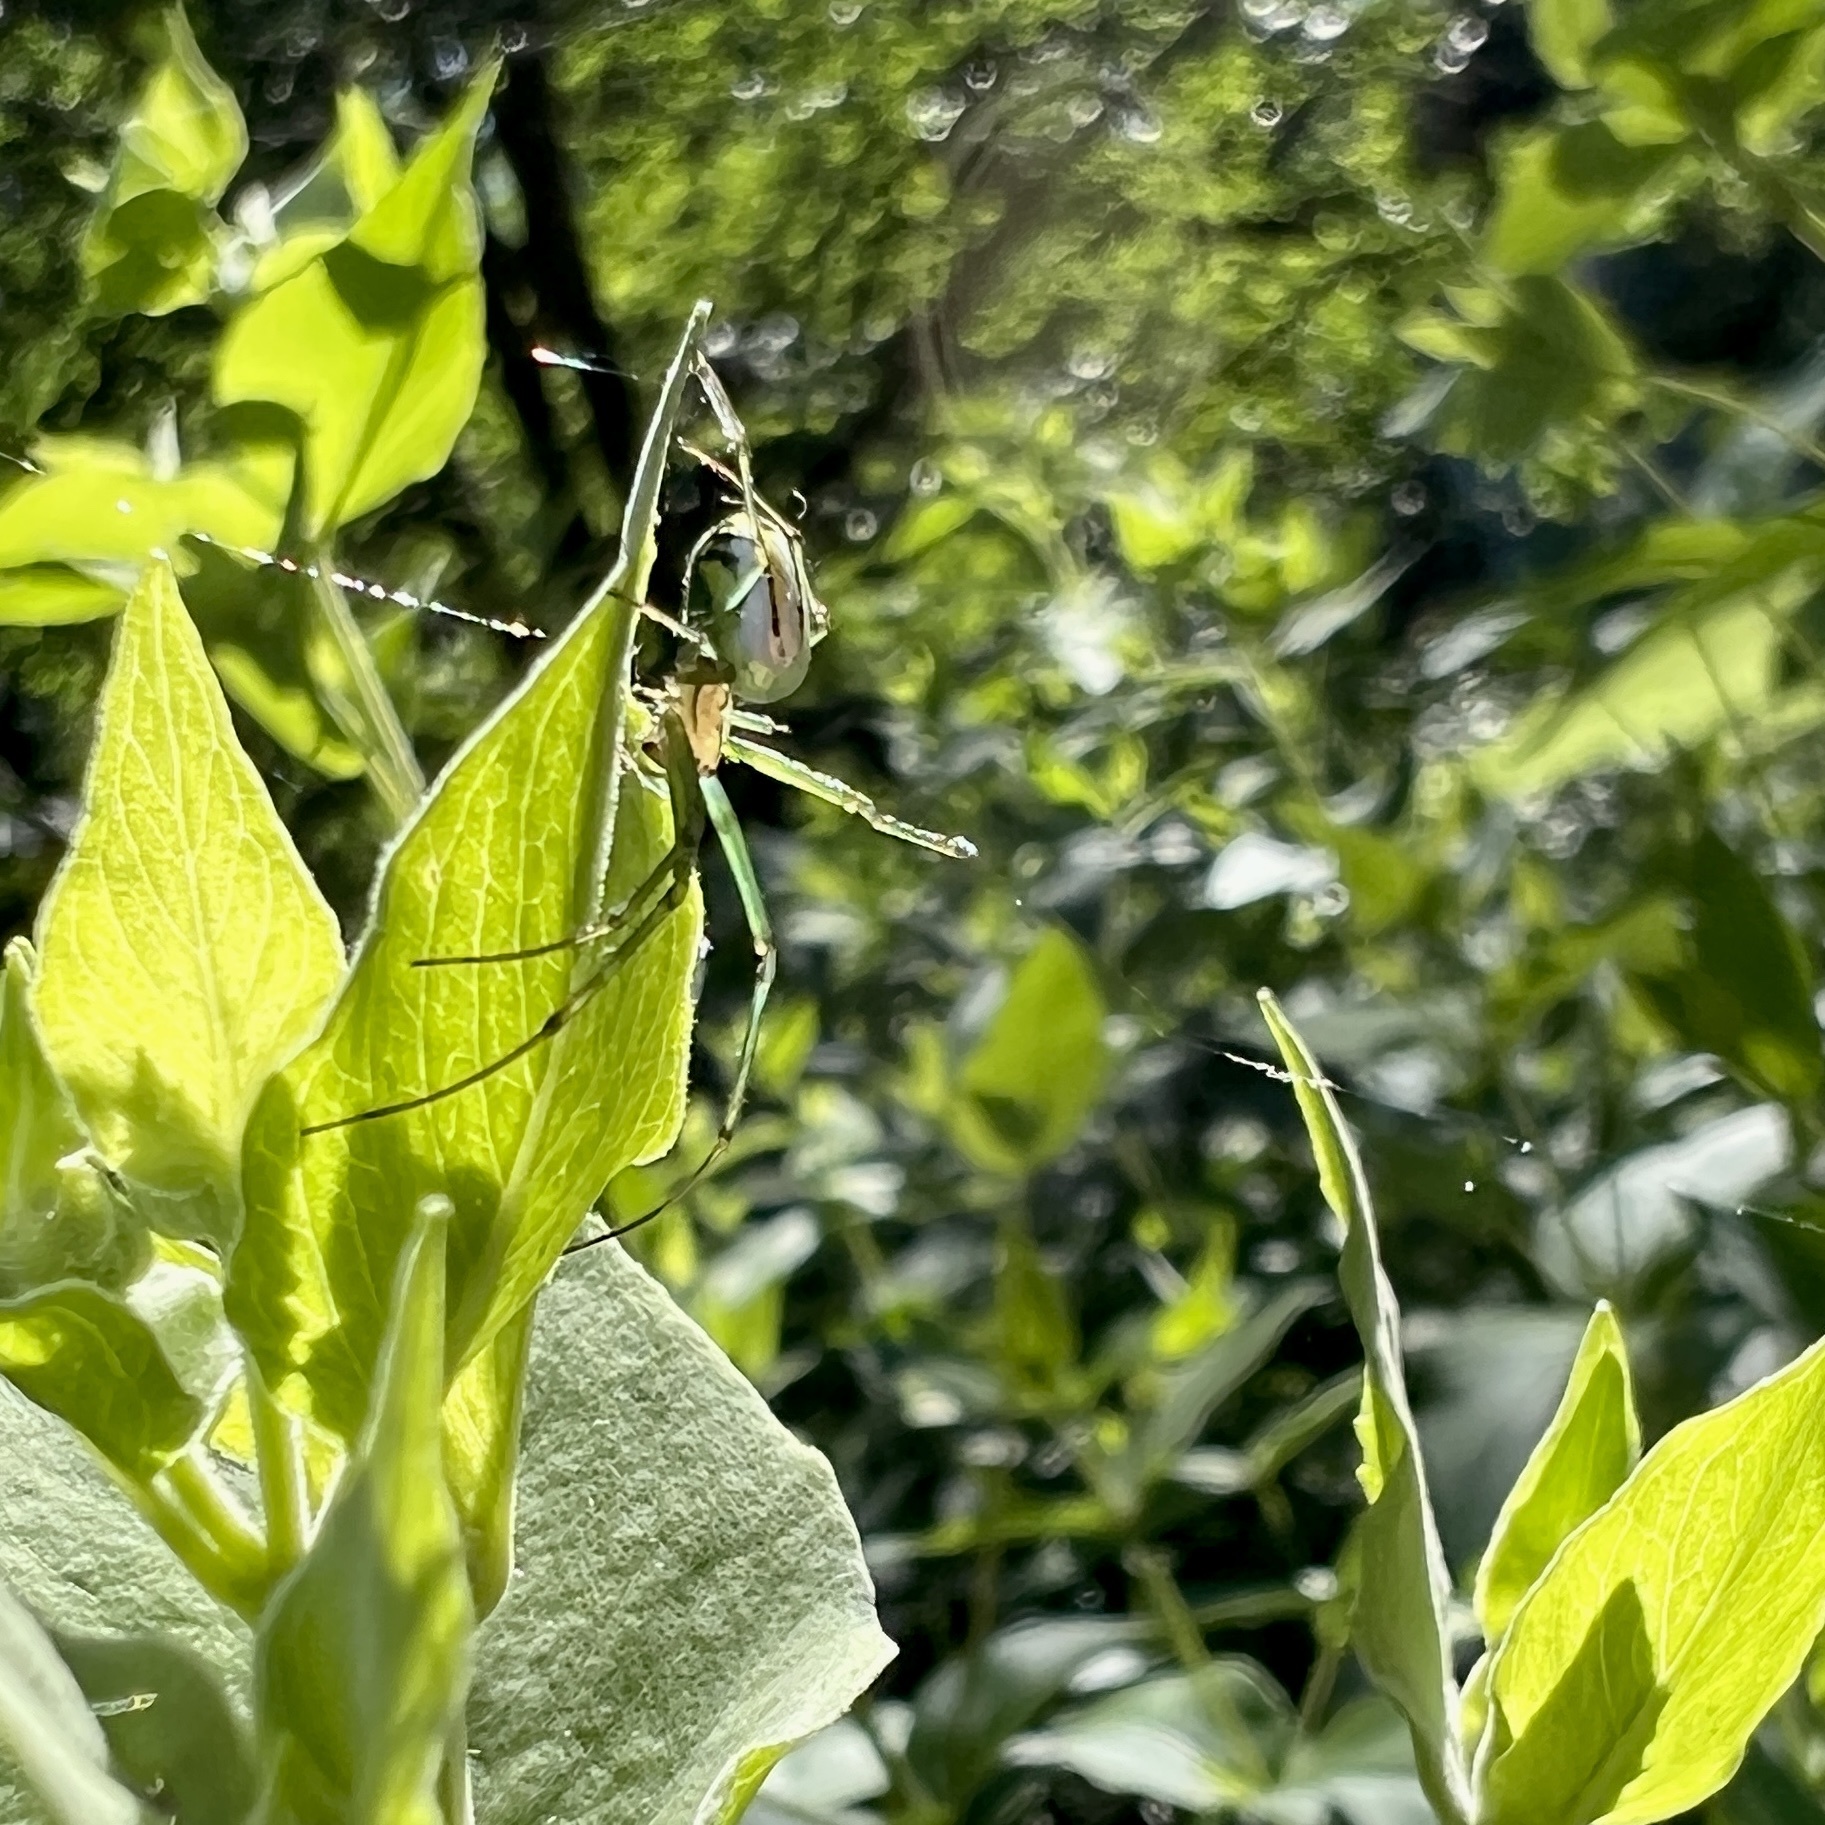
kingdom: Animalia
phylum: Arthropoda
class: Arachnida
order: Araneae
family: Tetragnathidae
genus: Leucauge
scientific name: Leucauge venusta
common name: Longjawed orb weavers
